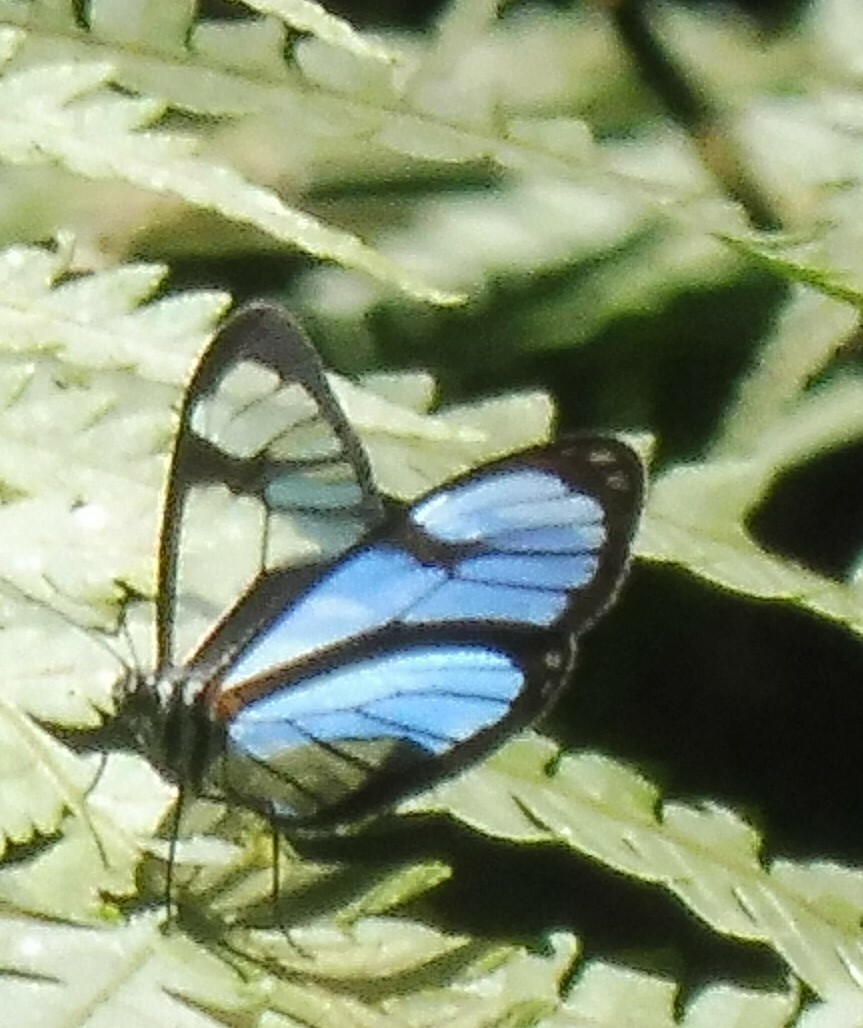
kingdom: Animalia
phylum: Arthropoda
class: Insecta
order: Lepidoptera
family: Nymphalidae
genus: Ithomia
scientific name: Ithomia diasia
